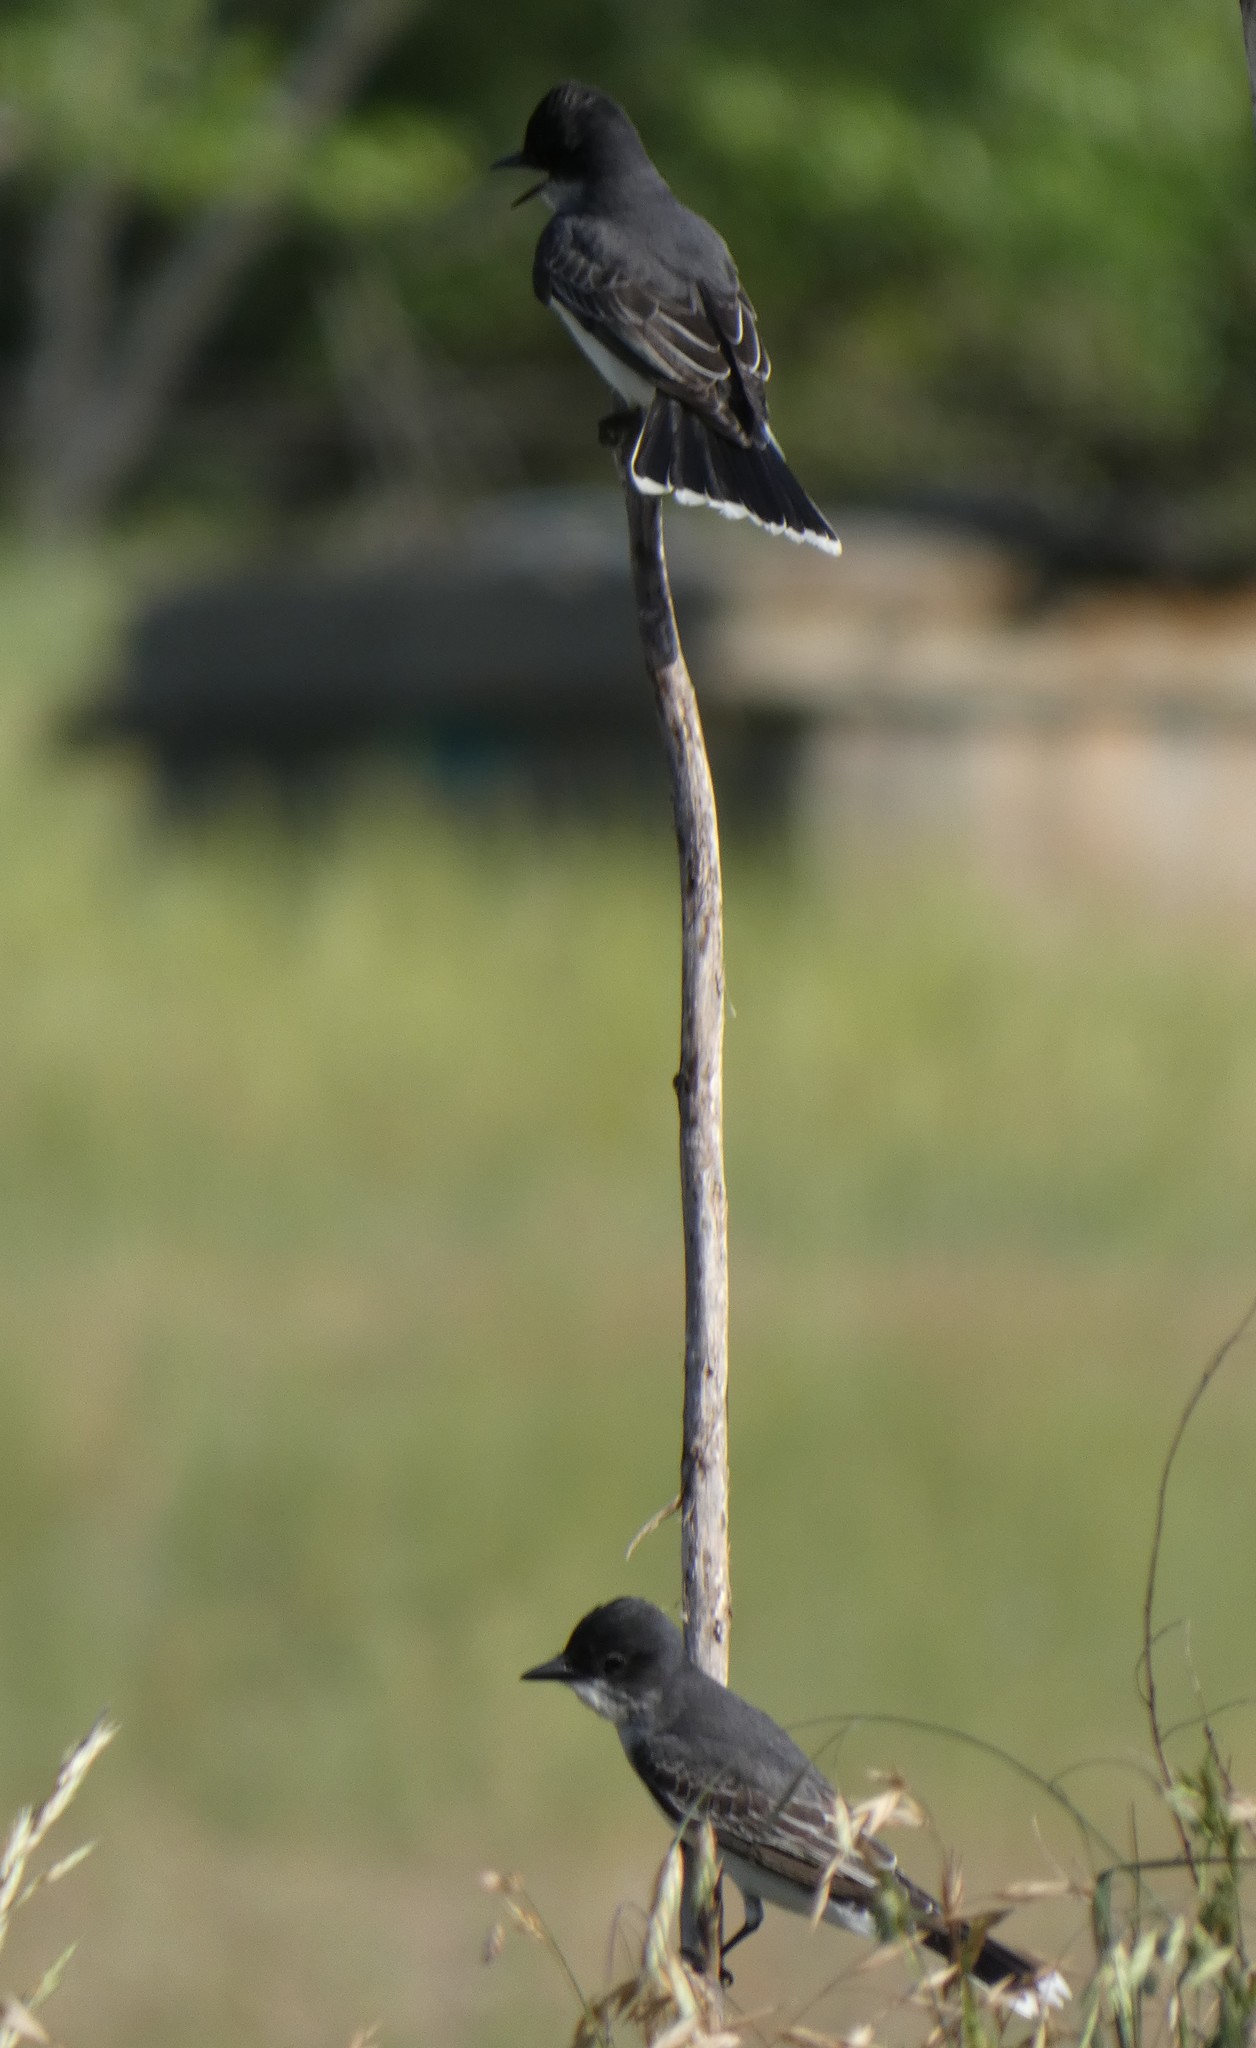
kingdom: Animalia
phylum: Chordata
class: Aves
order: Passeriformes
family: Tyrannidae
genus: Tyrannus
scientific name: Tyrannus tyrannus
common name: Eastern kingbird
